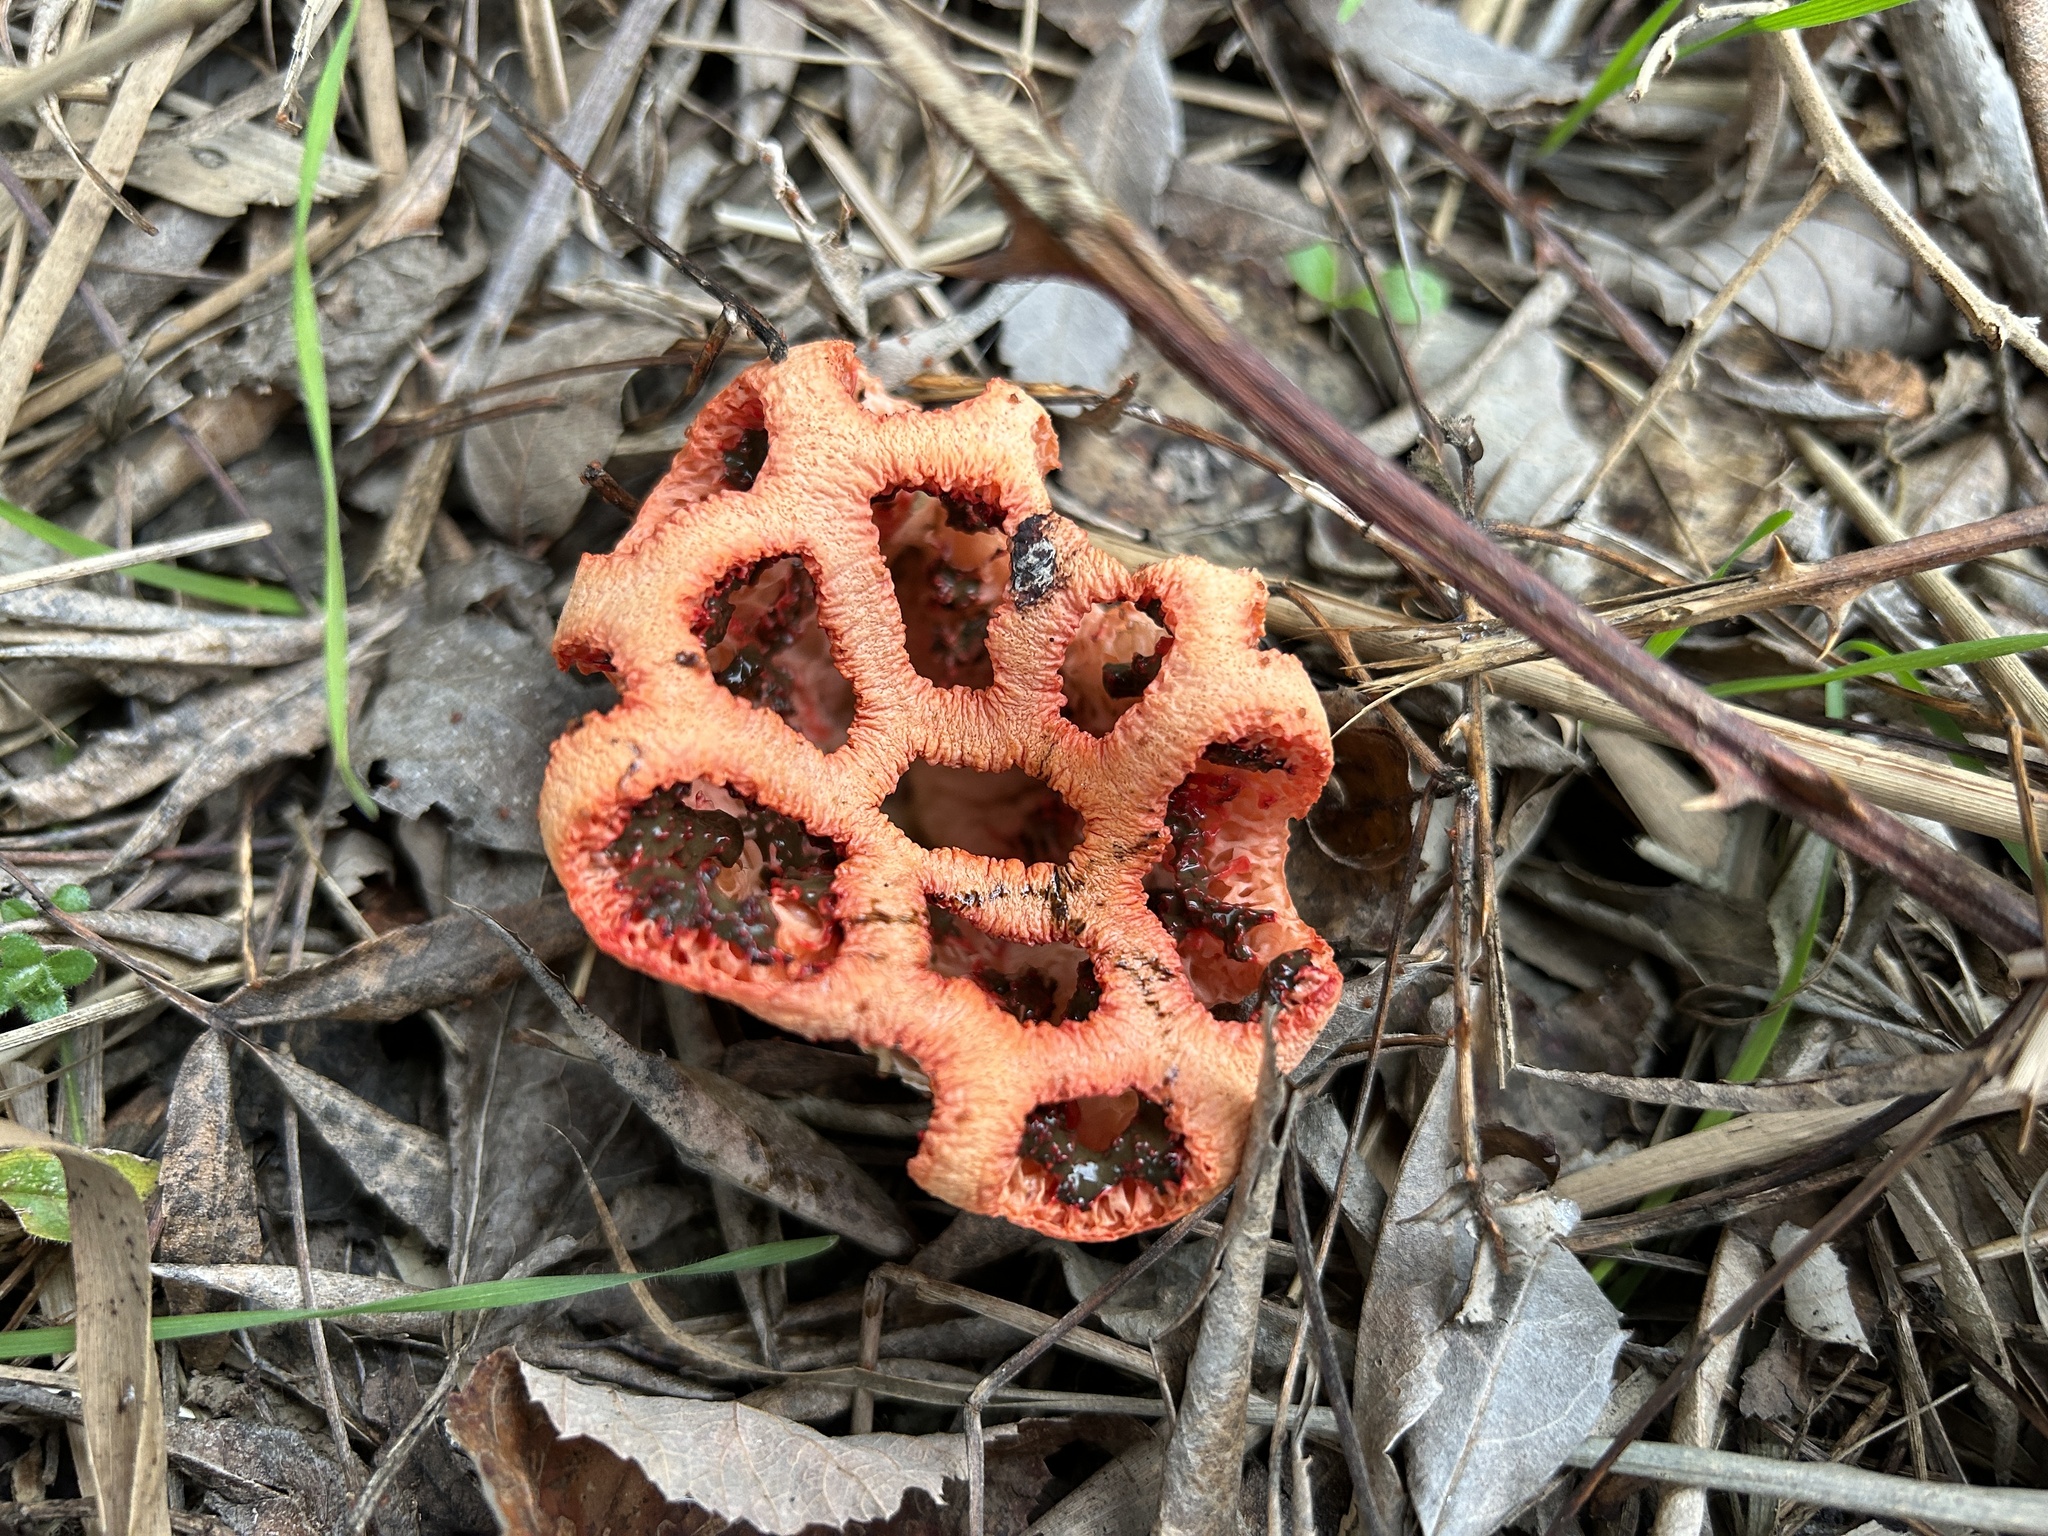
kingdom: Fungi
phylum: Basidiomycota
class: Agaricomycetes
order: Phallales
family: Phallaceae
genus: Clathrus
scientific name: Clathrus ruber
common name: Red cage
